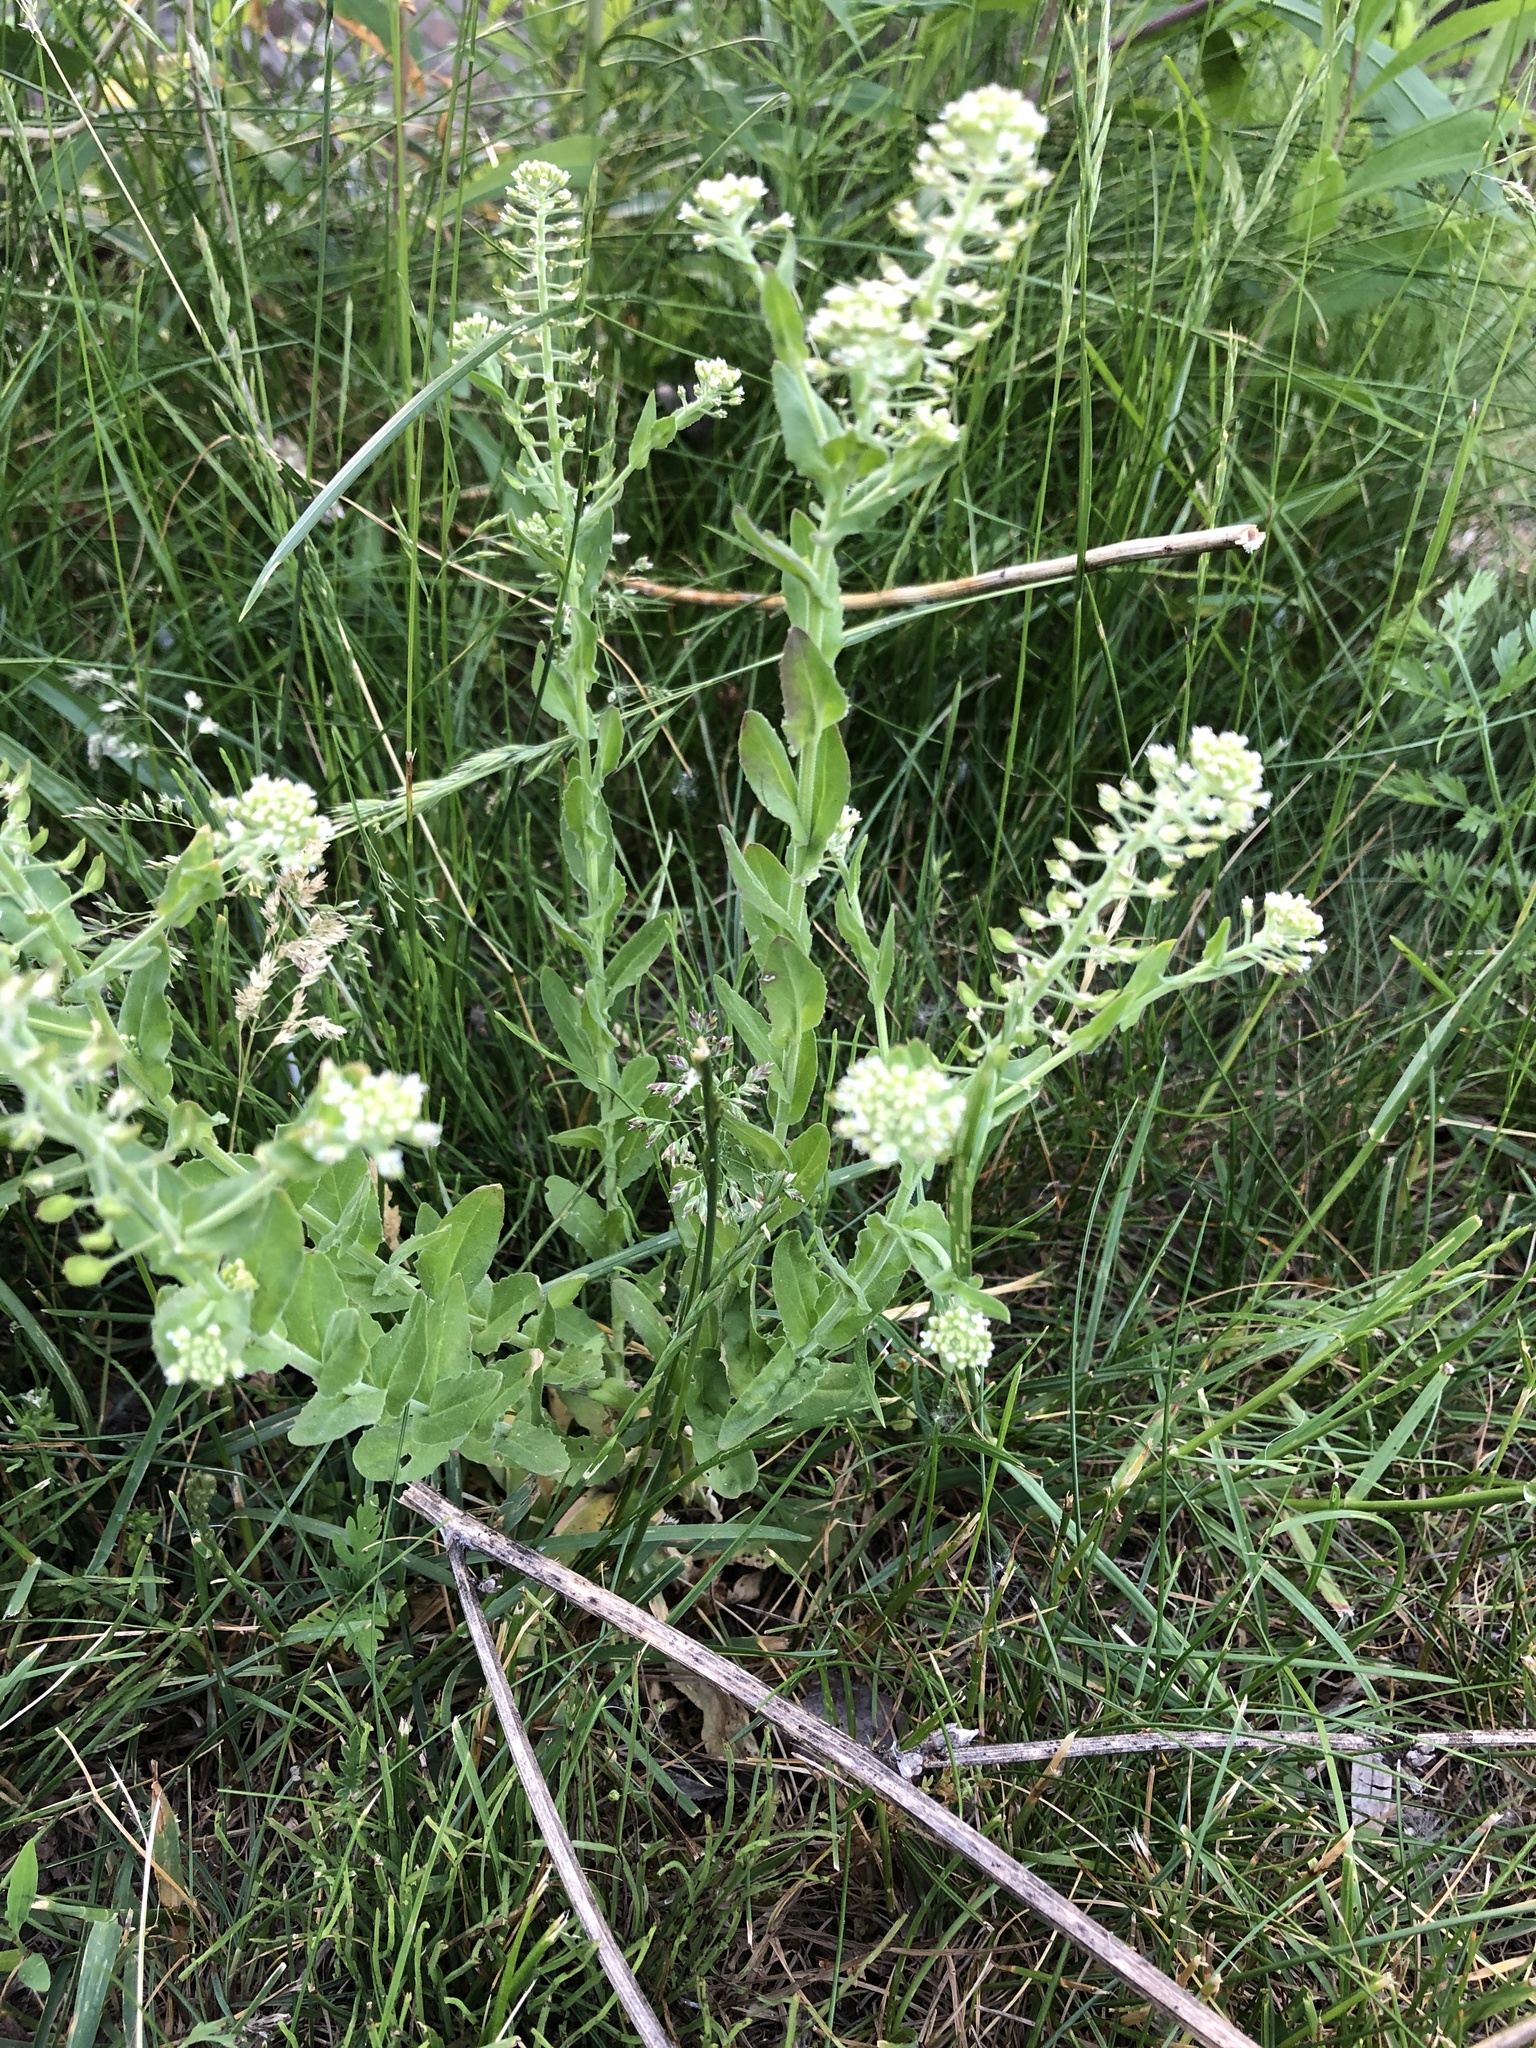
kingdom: Plantae
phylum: Tracheophyta
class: Magnoliopsida
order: Brassicales
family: Brassicaceae
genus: Lepidium
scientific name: Lepidium campestre
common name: Field pepperwort
